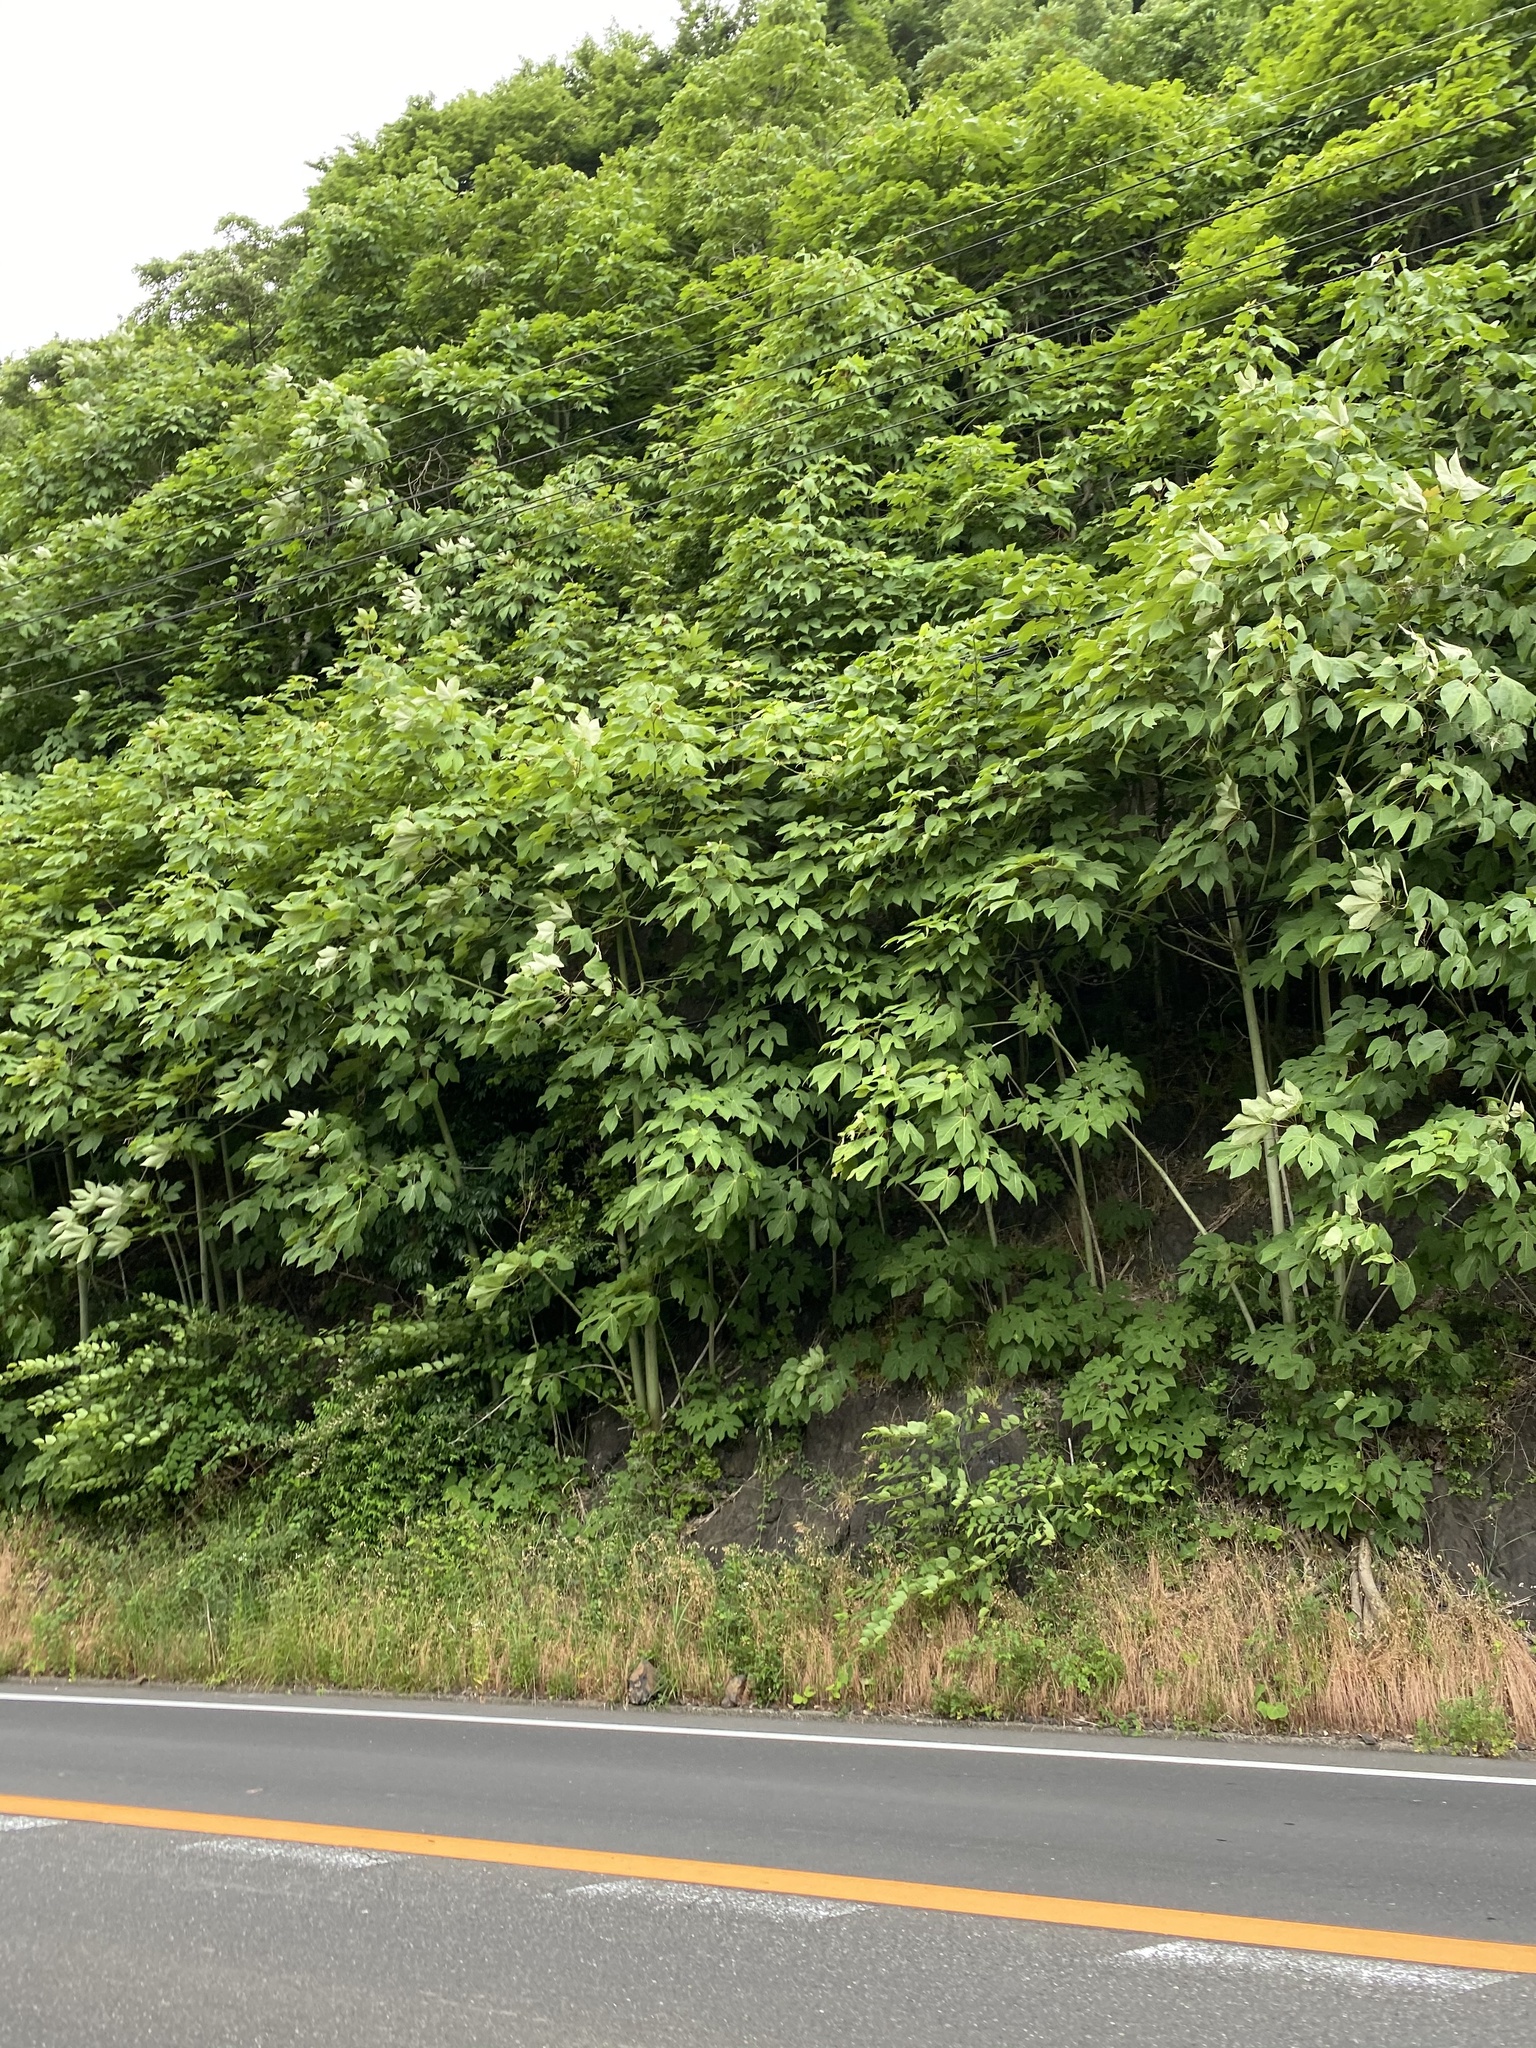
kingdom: Plantae
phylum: Tracheophyta
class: Magnoliopsida
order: Malvales
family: Malvaceae
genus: Firmiana
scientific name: Firmiana simplex
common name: Chinese parasoltree
